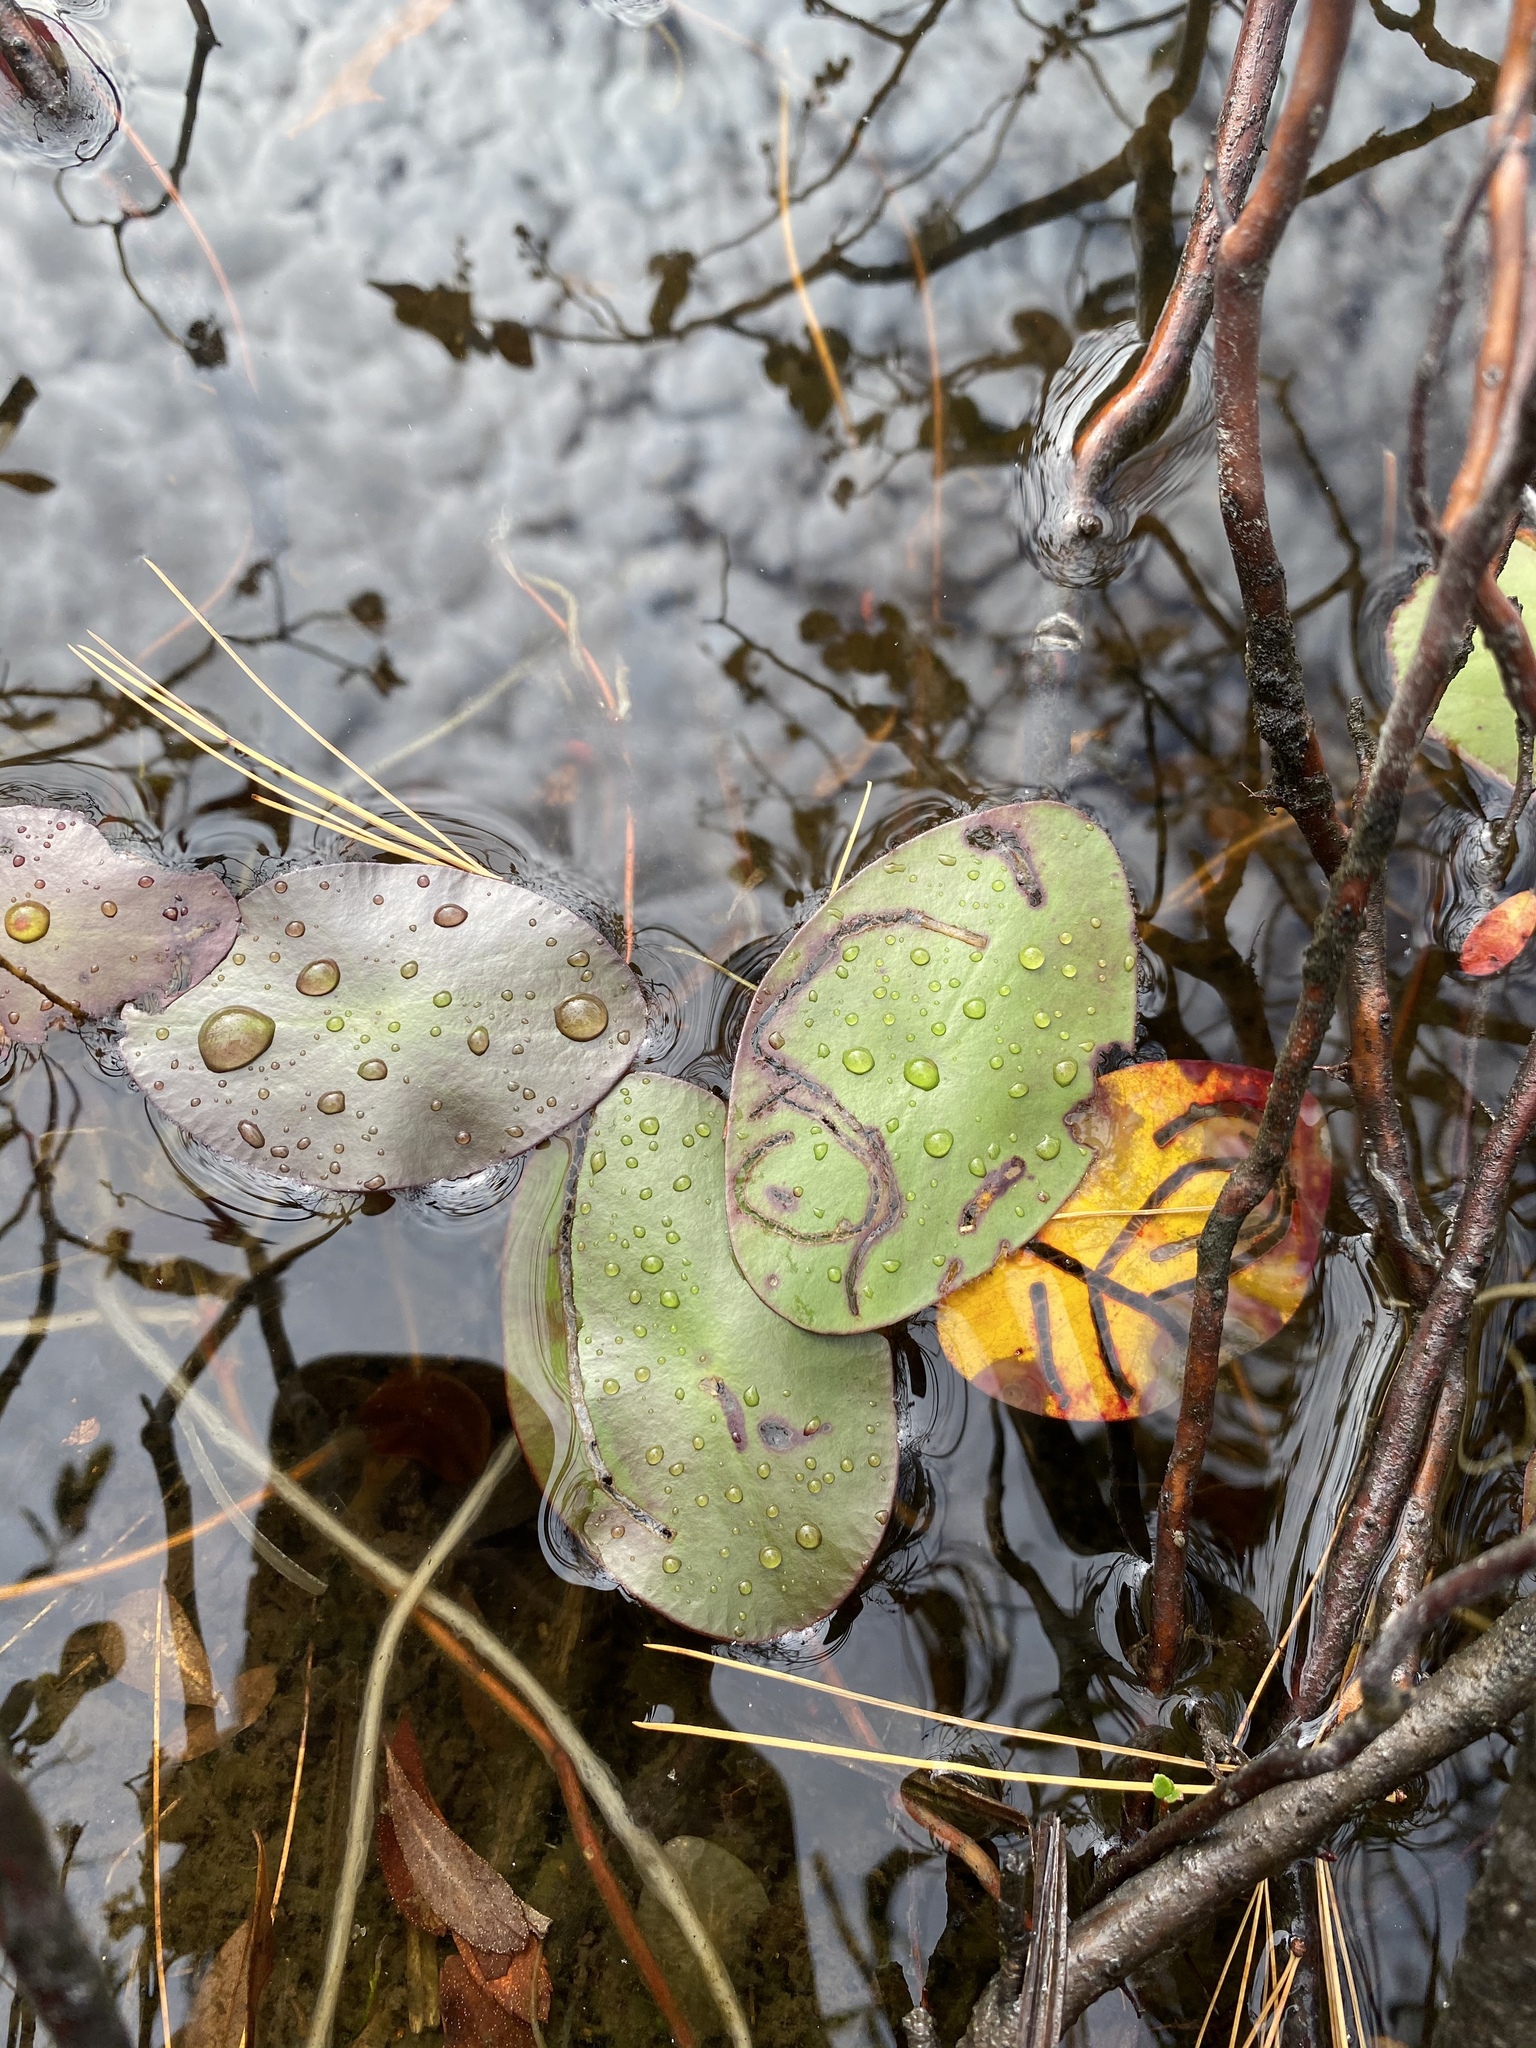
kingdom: Plantae
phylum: Tracheophyta
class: Magnoliopsida
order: Nymphaeales
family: Cabombaceae
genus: Brasenia
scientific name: Brasenia schreberi
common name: Water-shield
